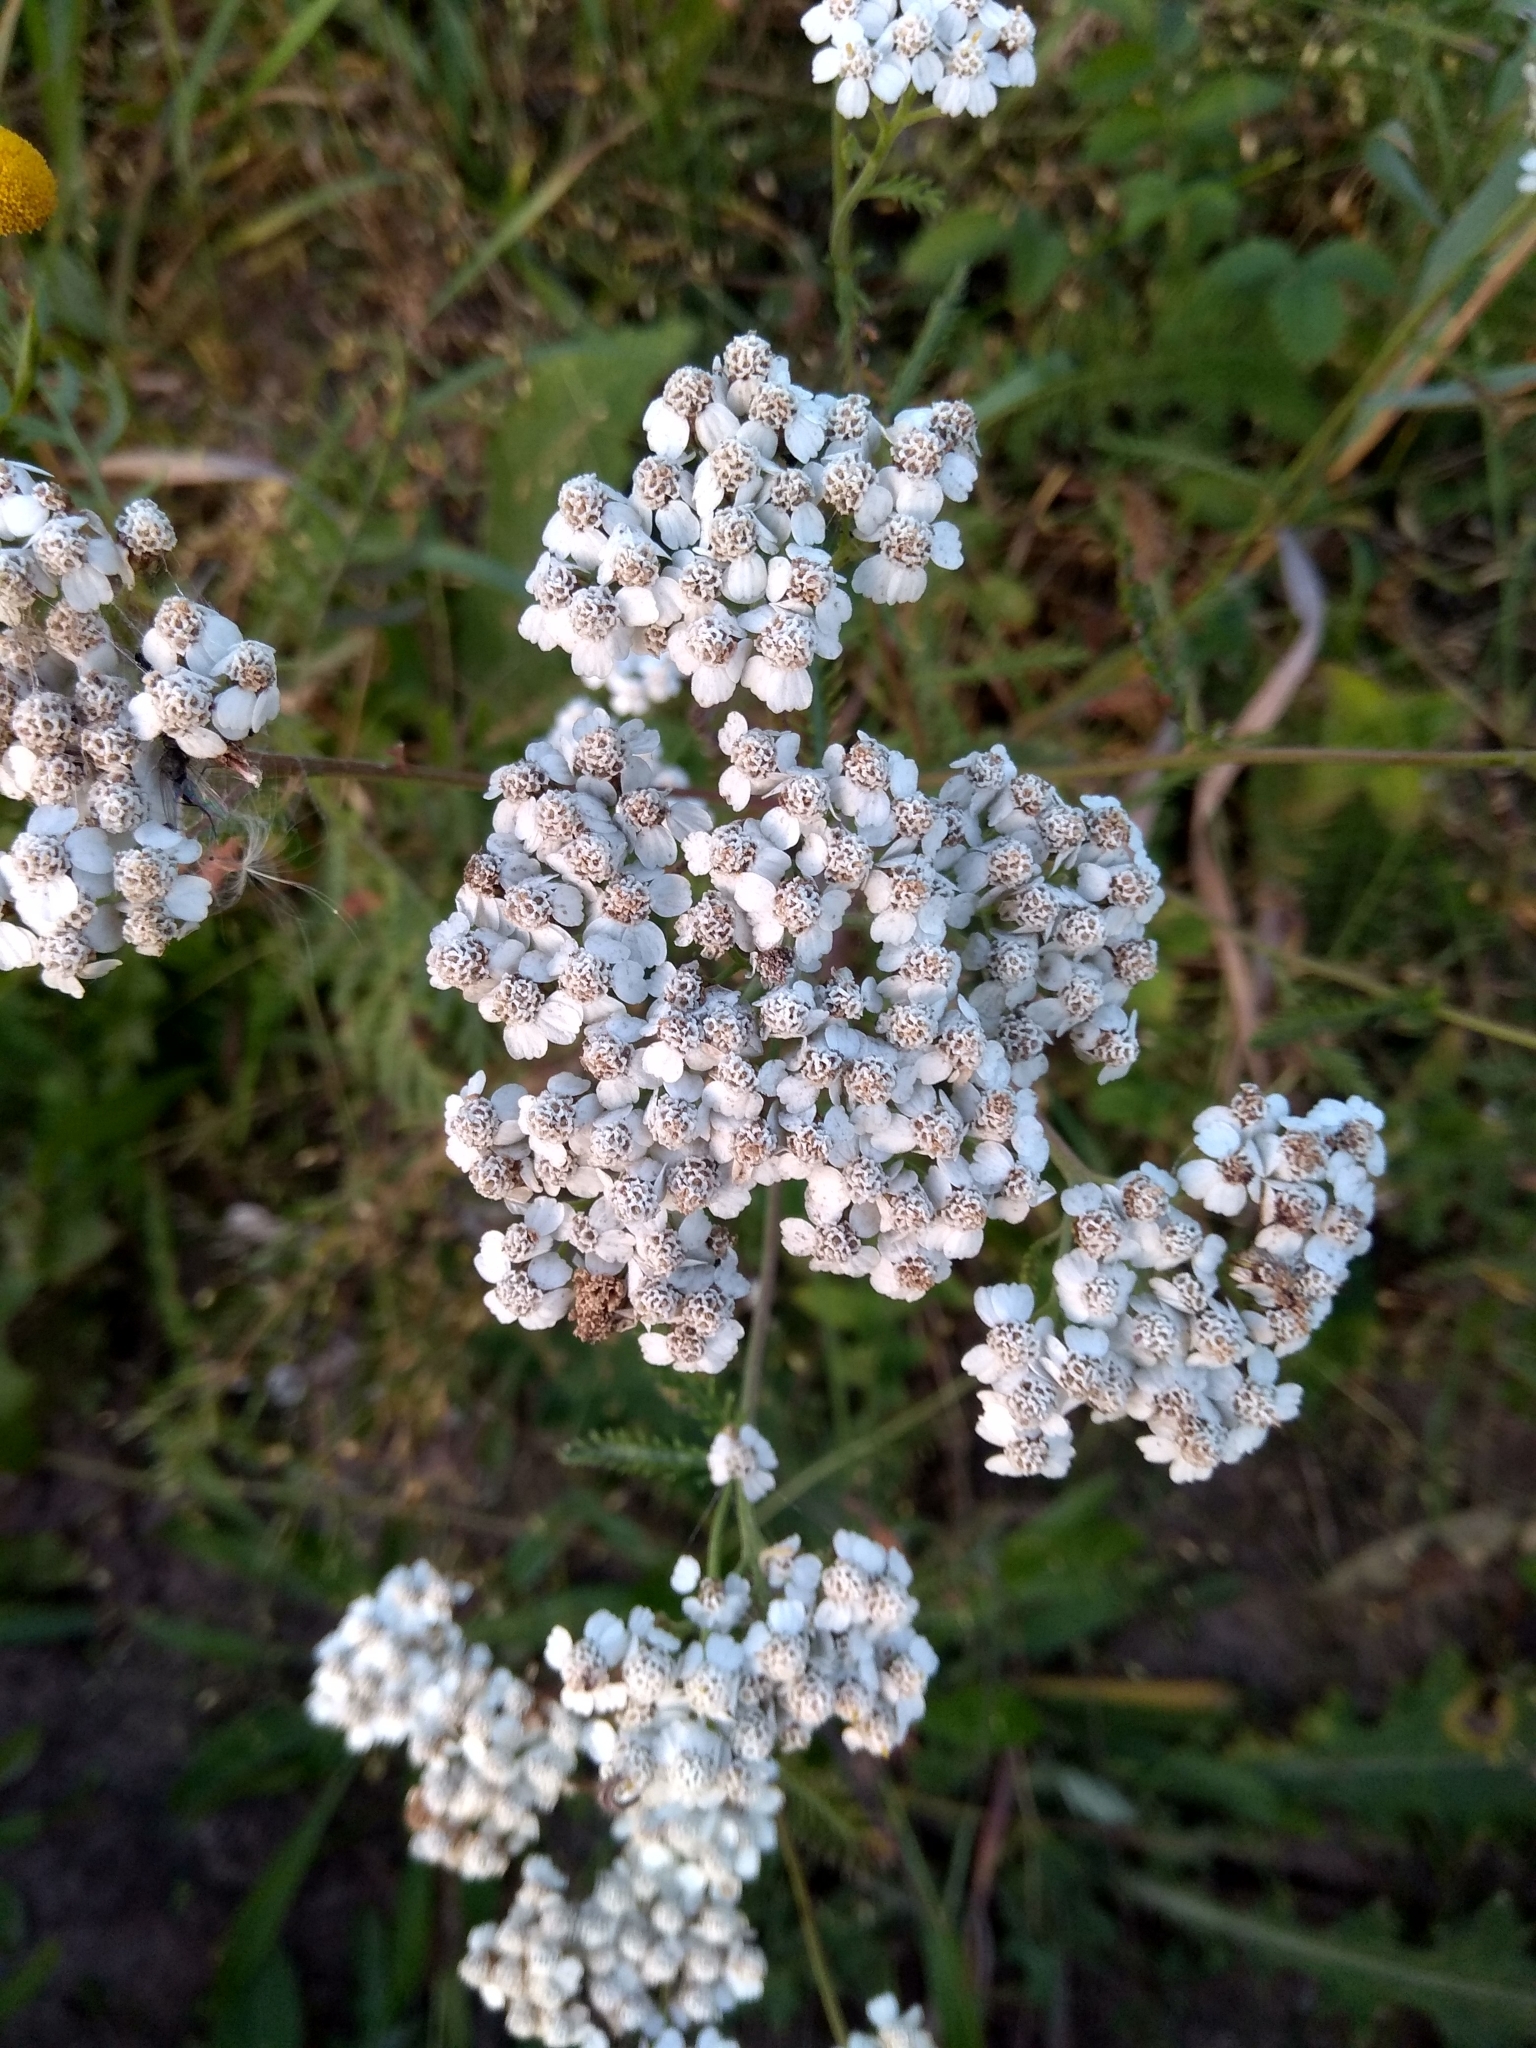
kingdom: Plantae
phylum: Tracheophyta
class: Magnoliopsida
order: Asterales
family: Asteraceae
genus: Achillea
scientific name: Achillea millefolium
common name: Yarrow
